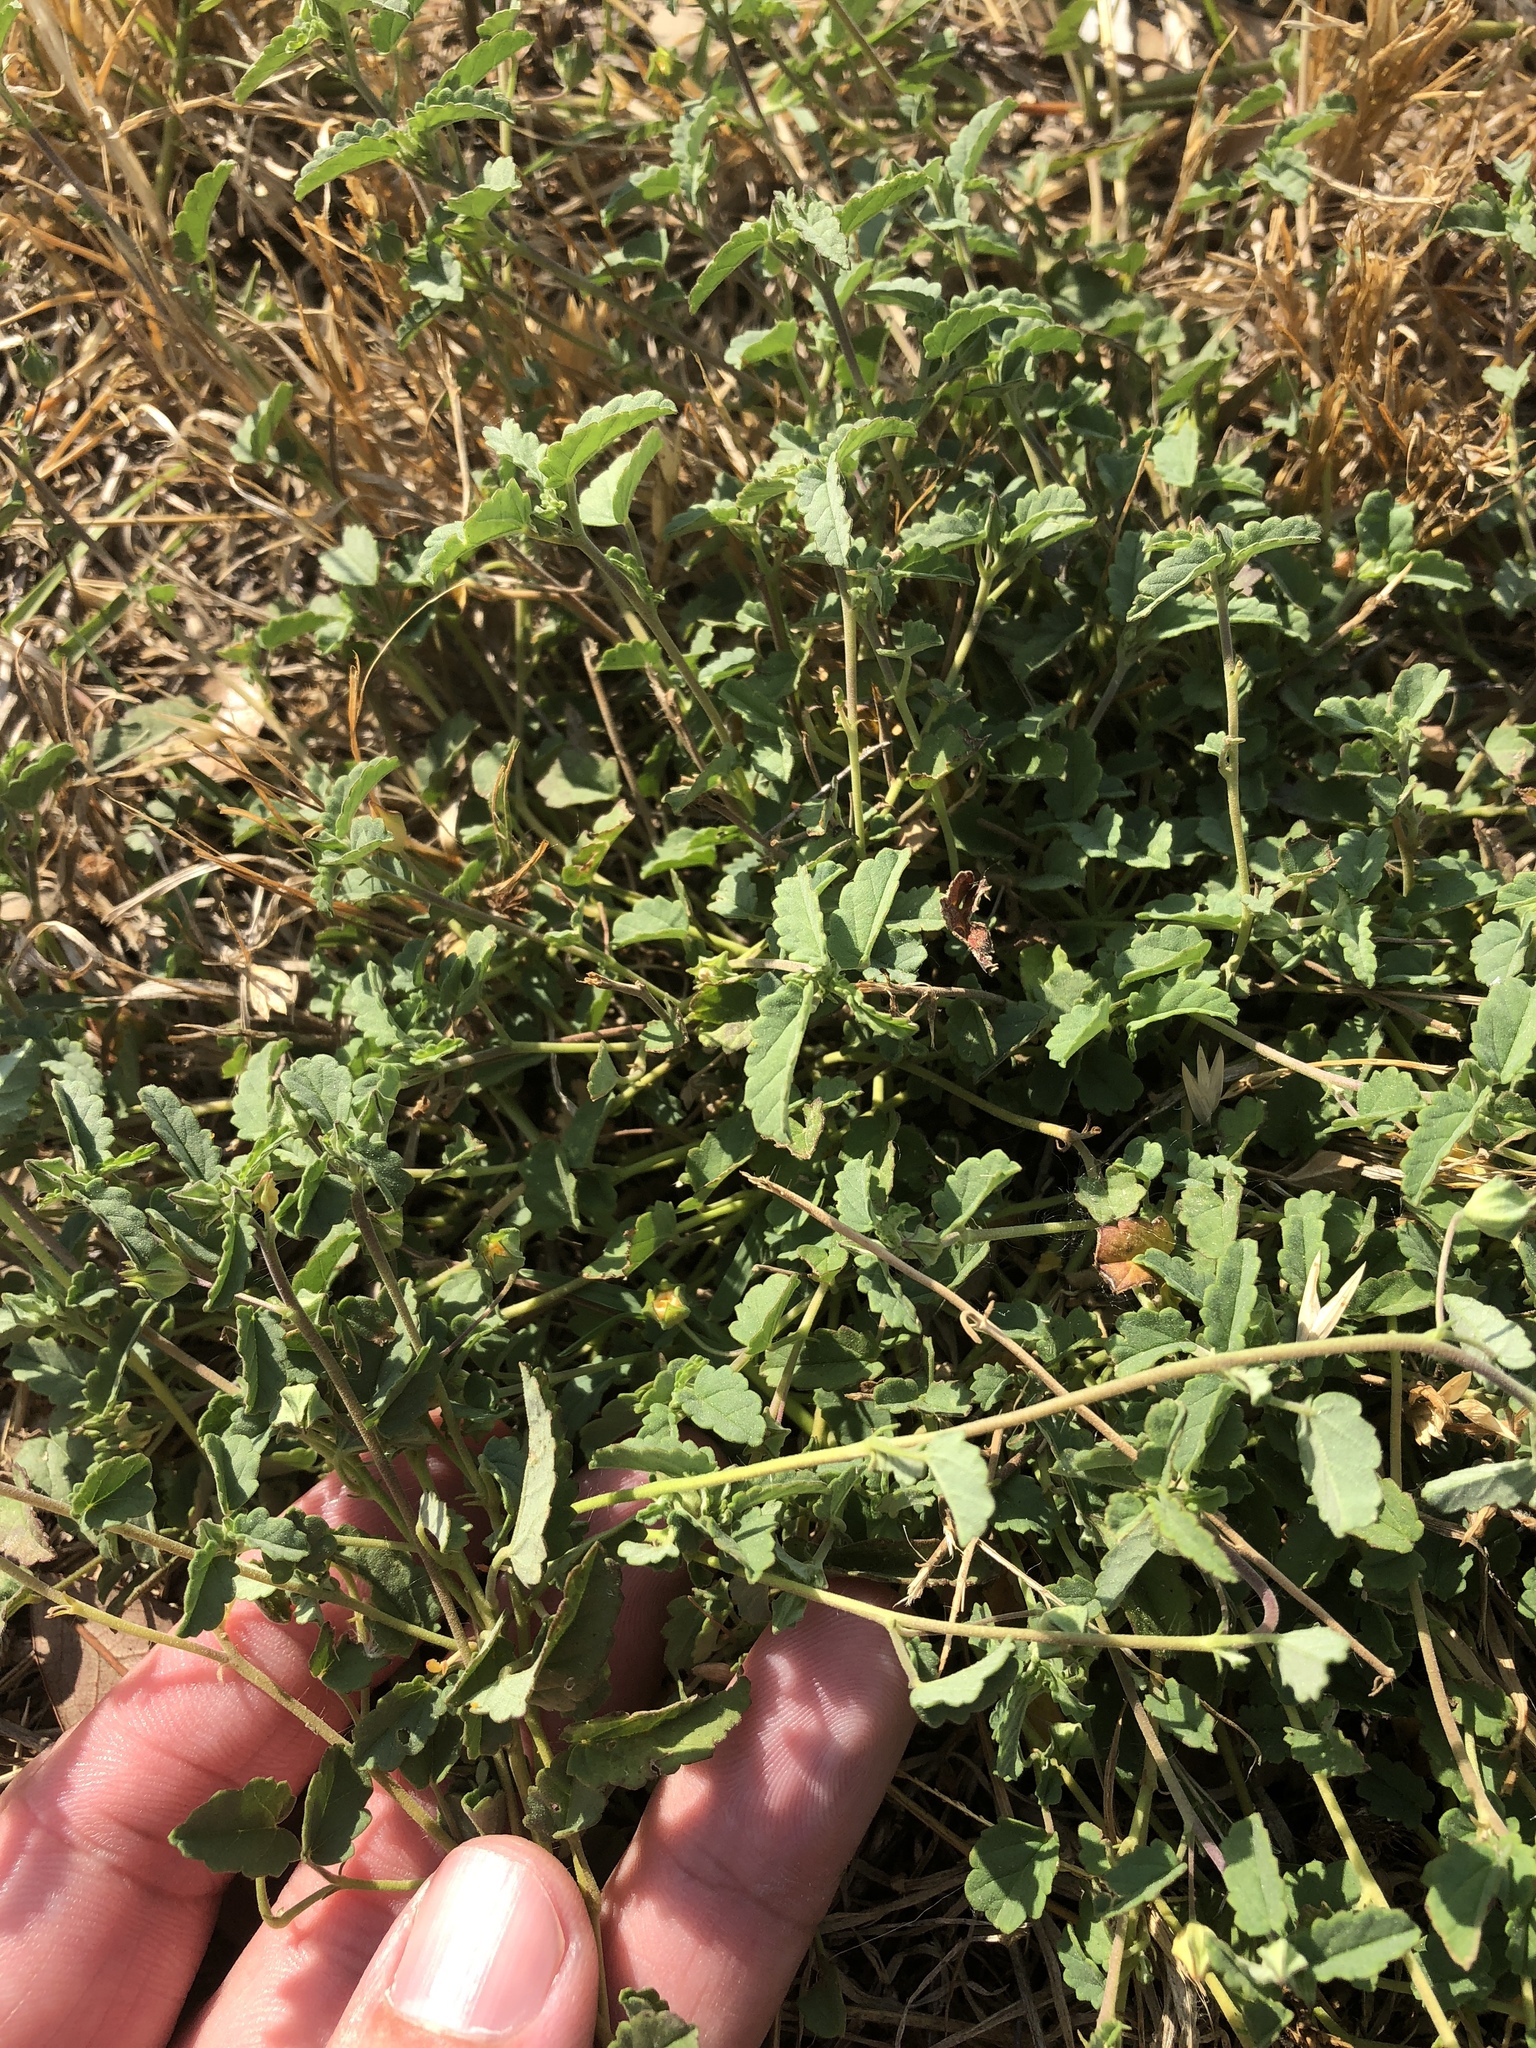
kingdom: Plantae
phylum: Tracheophyta
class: Magnoliopsida
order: Malvales
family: Malvaceae
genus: Sida
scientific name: Sida abutilifolia
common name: Spreading fanpetals
